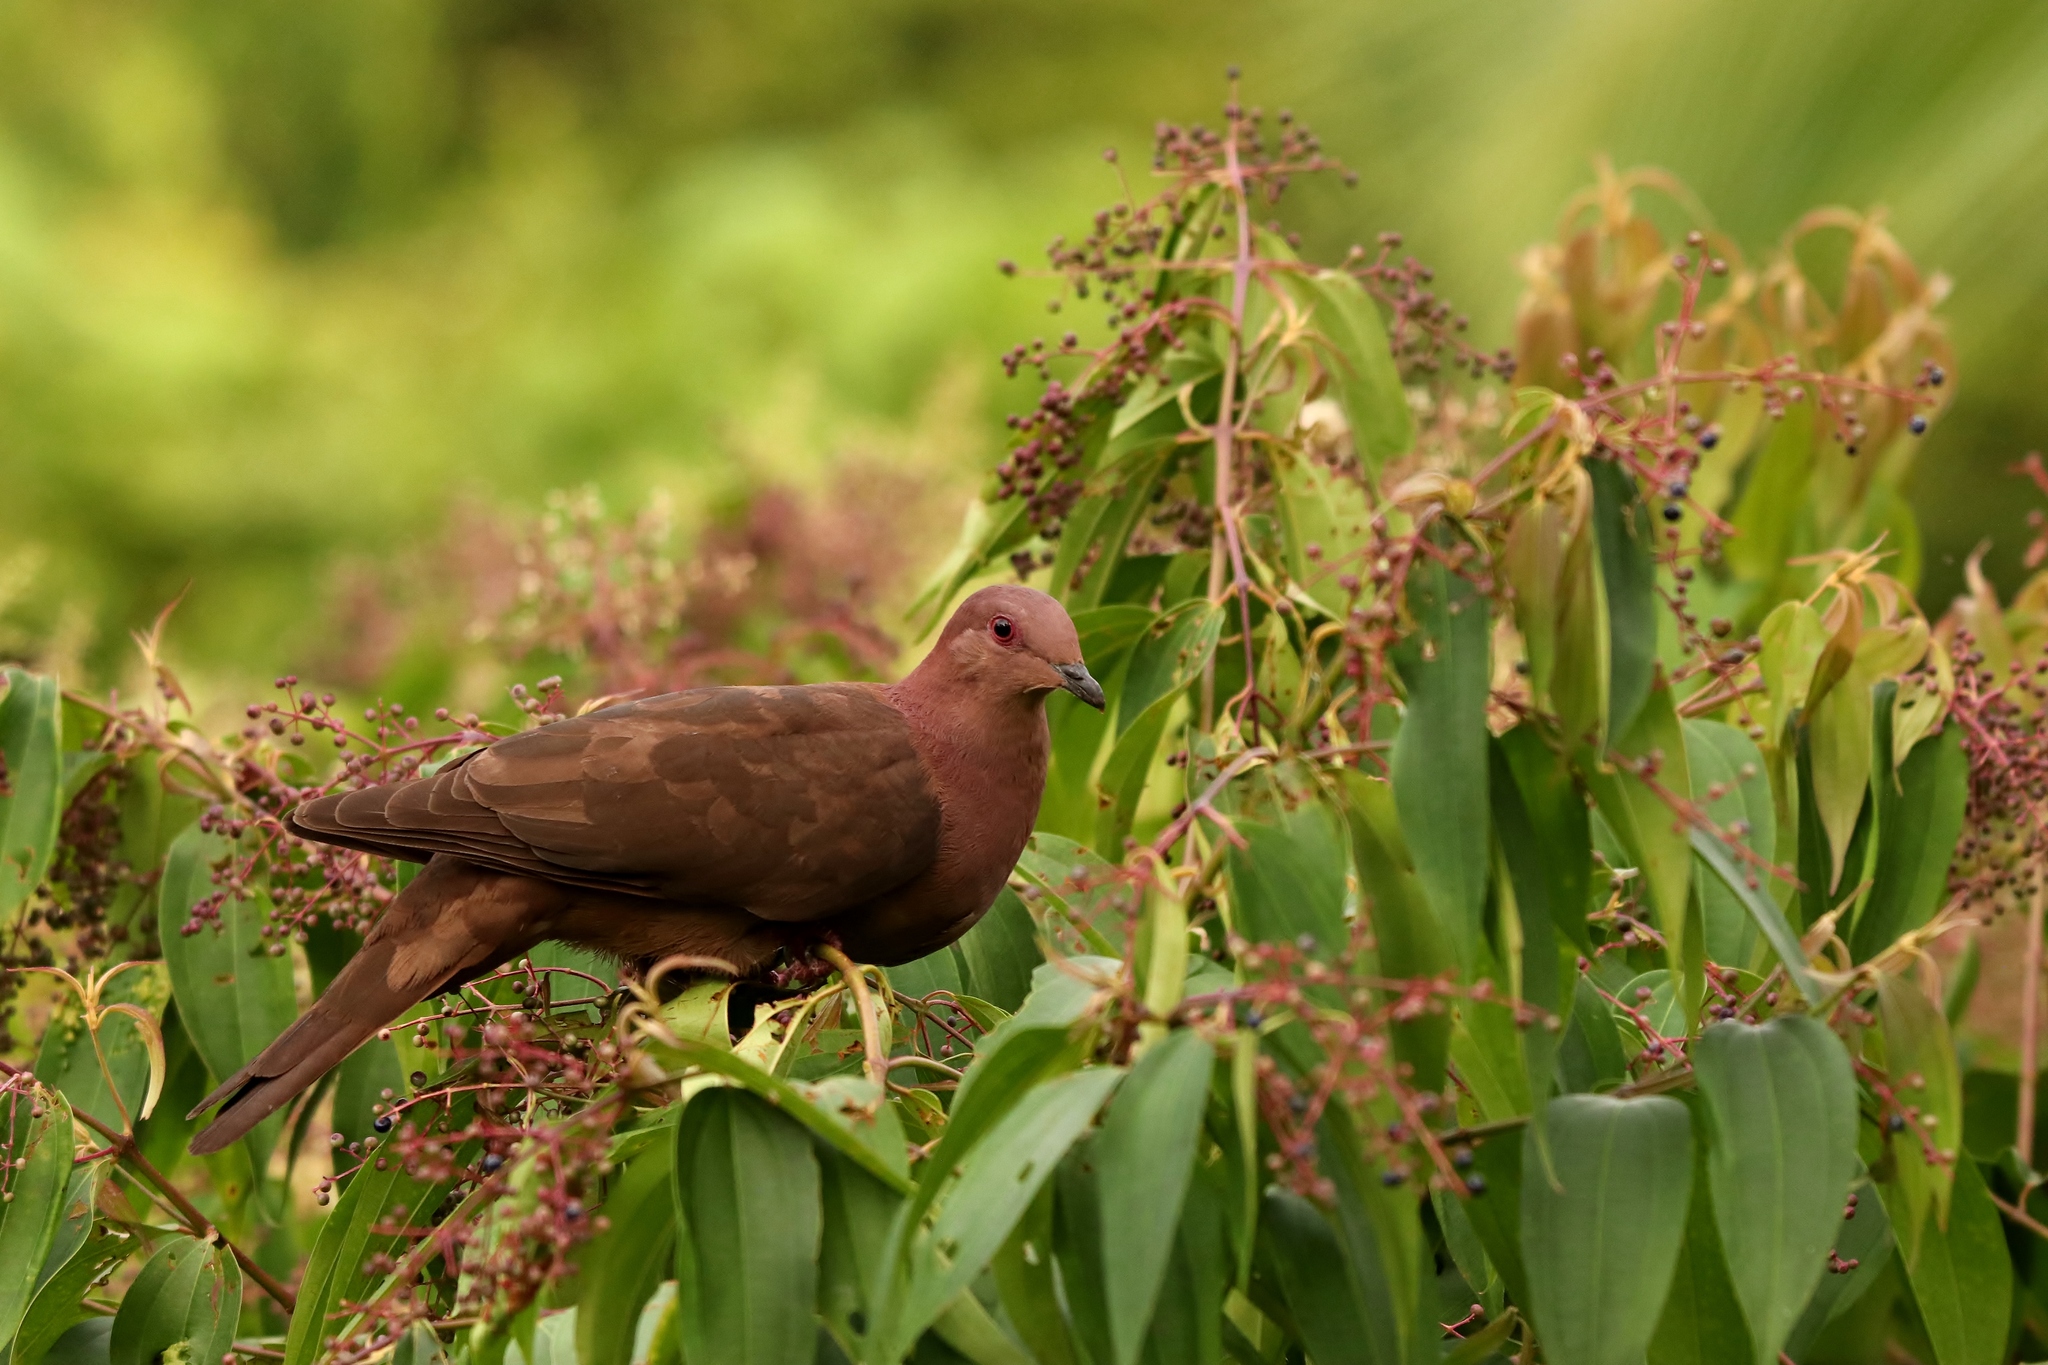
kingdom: Animalia
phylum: Chordata
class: Aves
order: Columbiformes
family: Columbidae
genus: Patagioenas
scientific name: Patagioenas nigrirostris
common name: Short-billed pigeon
